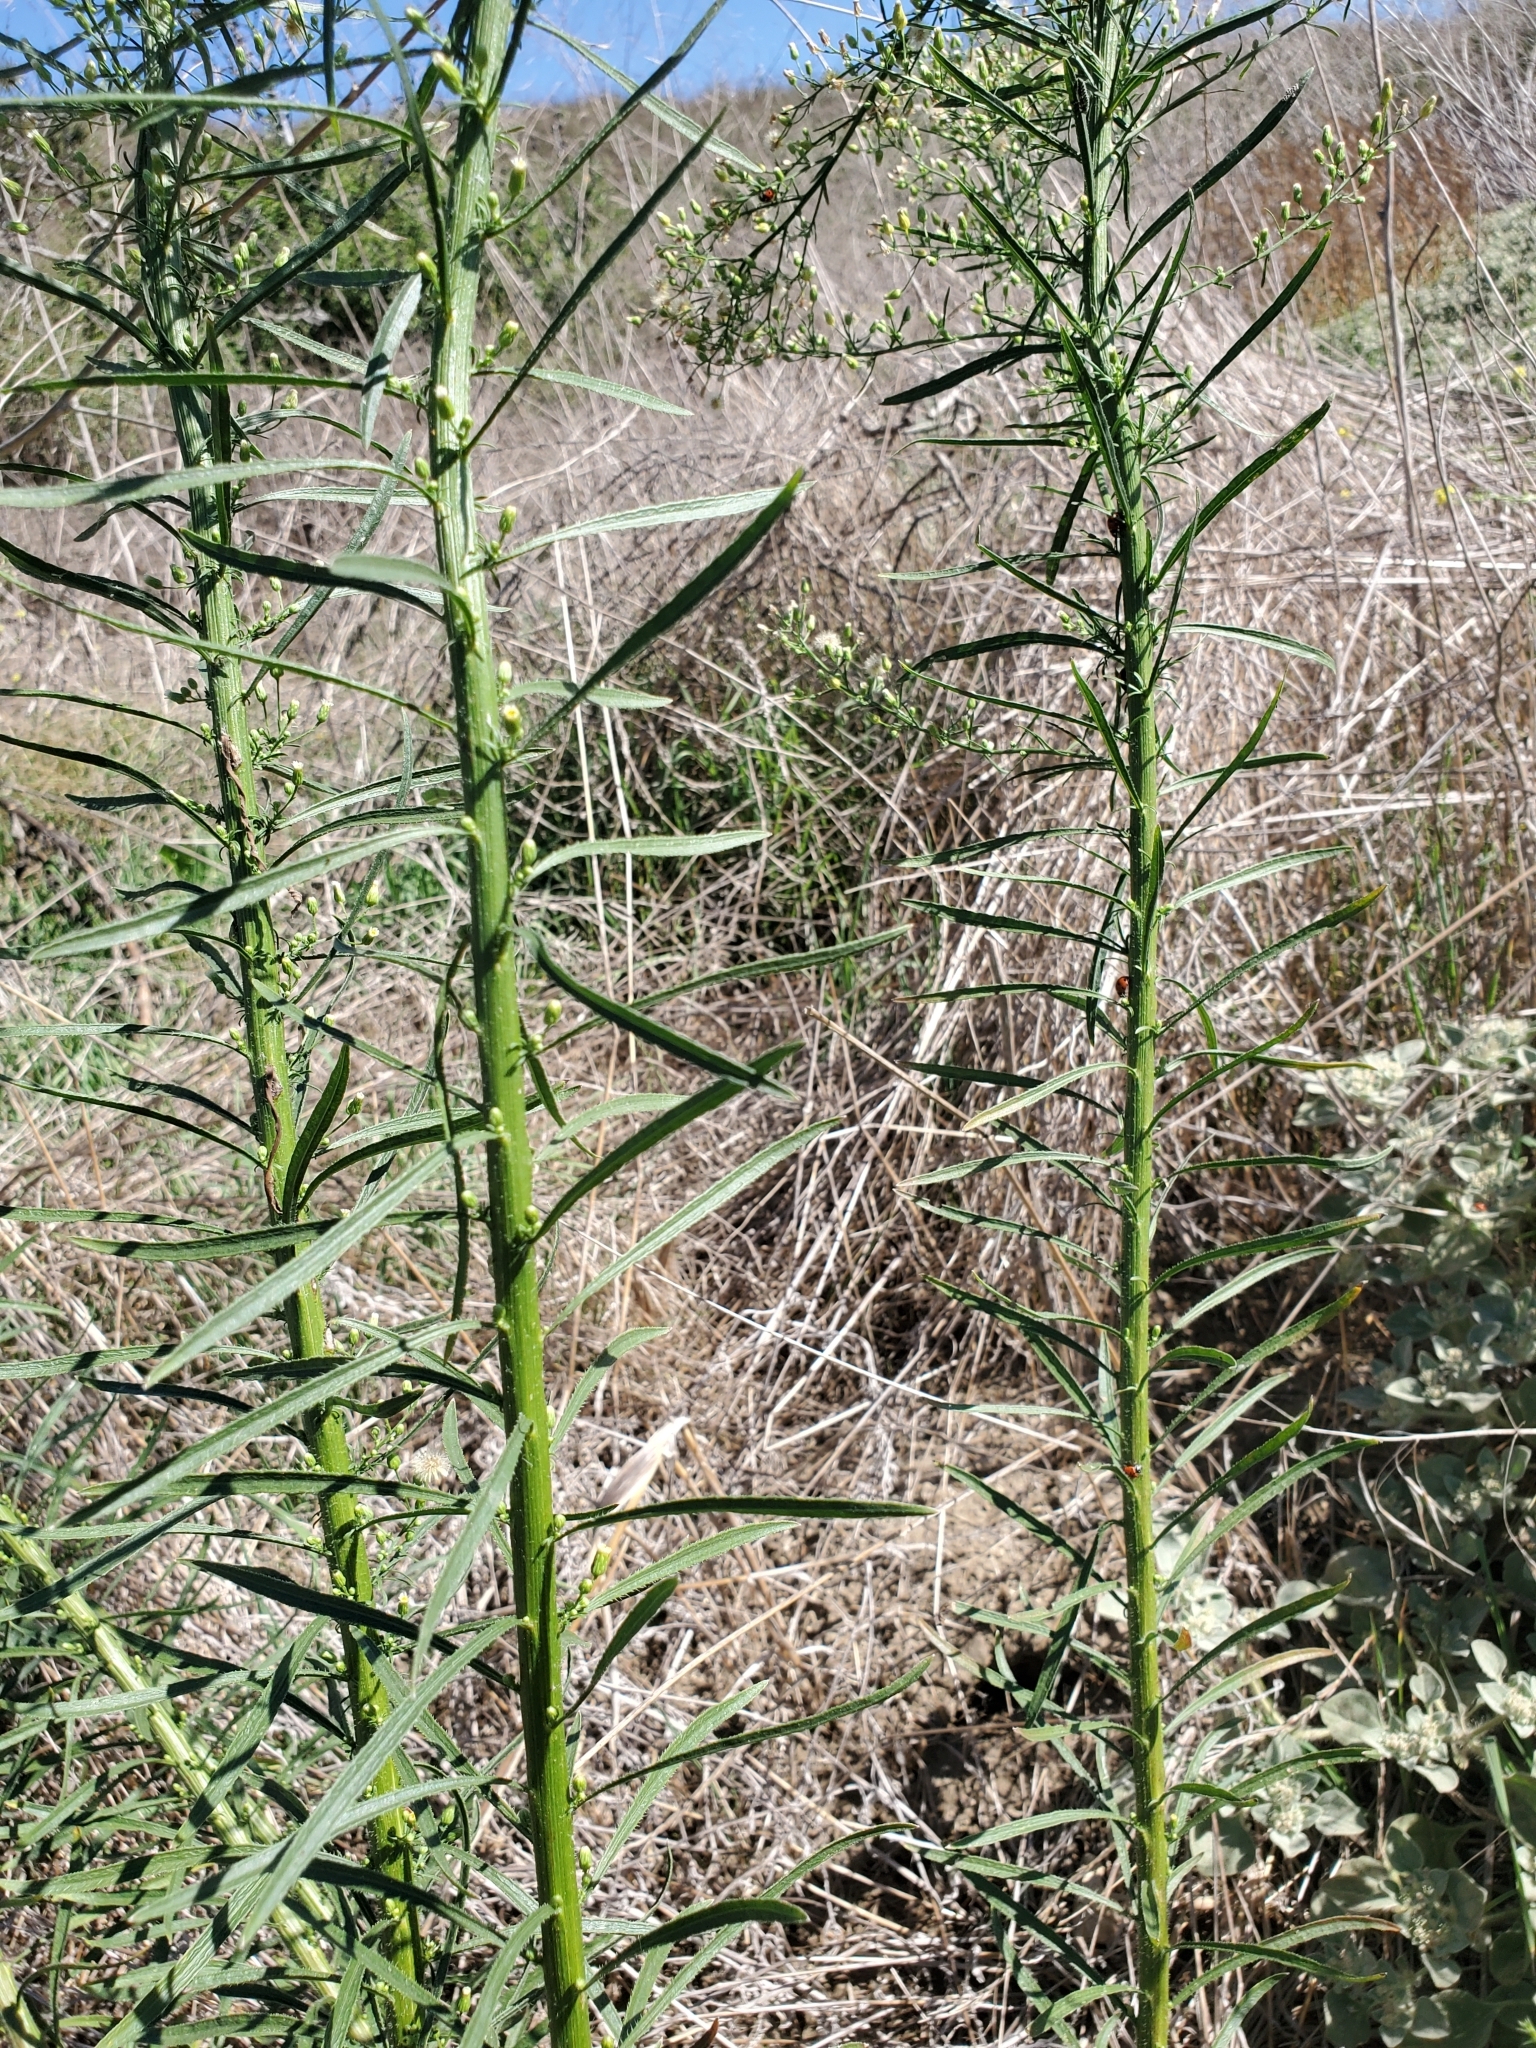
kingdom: Plantae
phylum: Tracheophyta
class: Magnoliopsida
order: Asterales
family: Asteraceae
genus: Erigeron
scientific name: Erigeron canadensis
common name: Canadian fleabane
